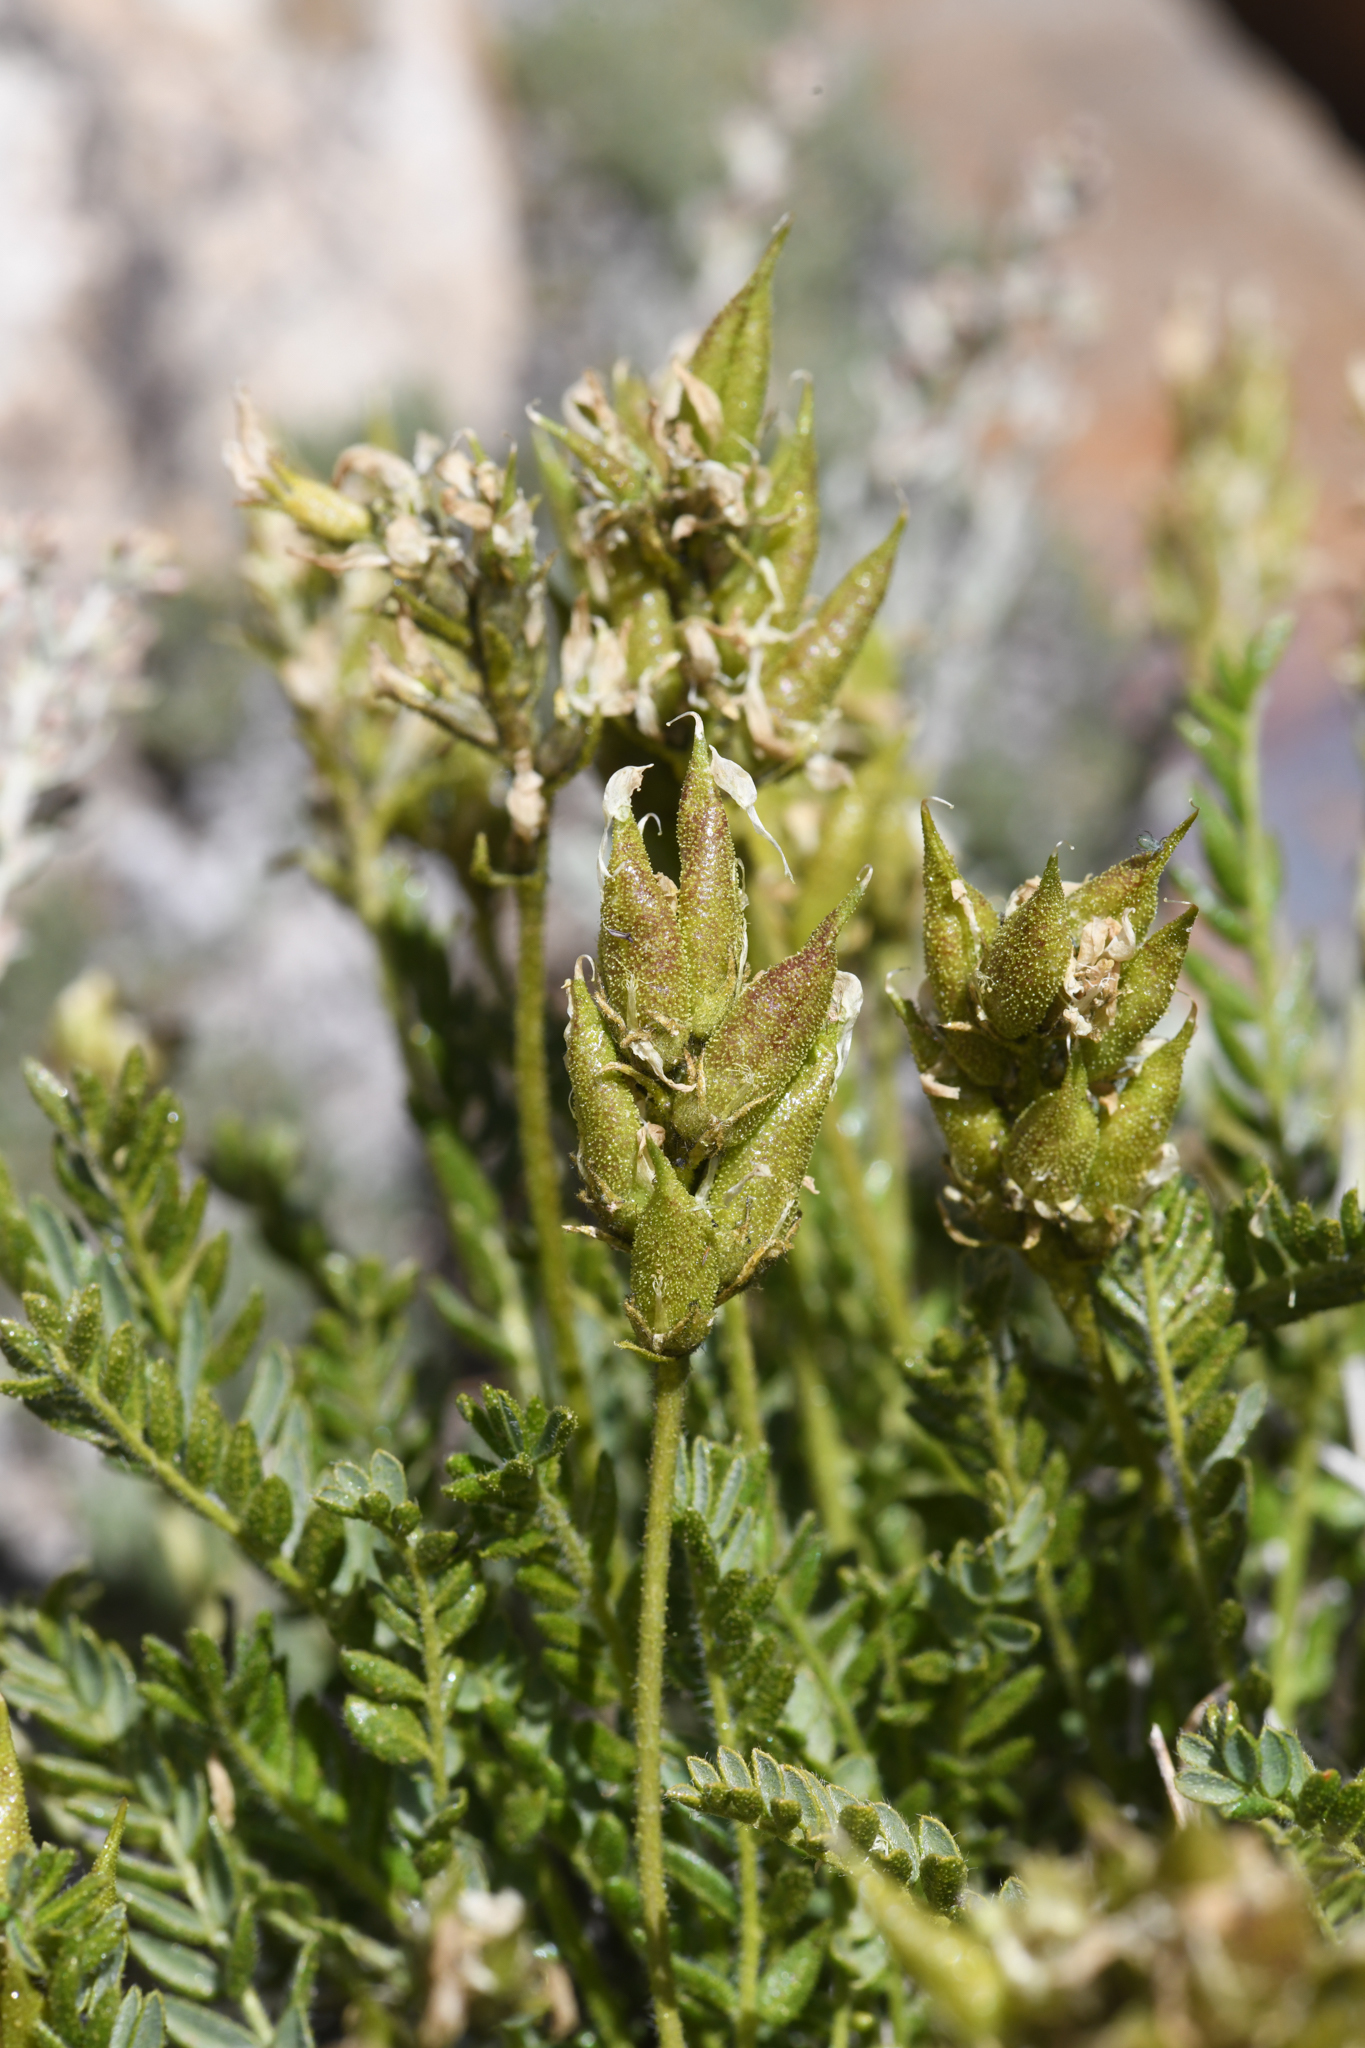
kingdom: Plantae
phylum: Tracheophyta
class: Magnoliopsida
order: Fabales
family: Fabaceae
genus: Oxytropis
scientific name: Oxytropis borealis
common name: Boreal locoweed
